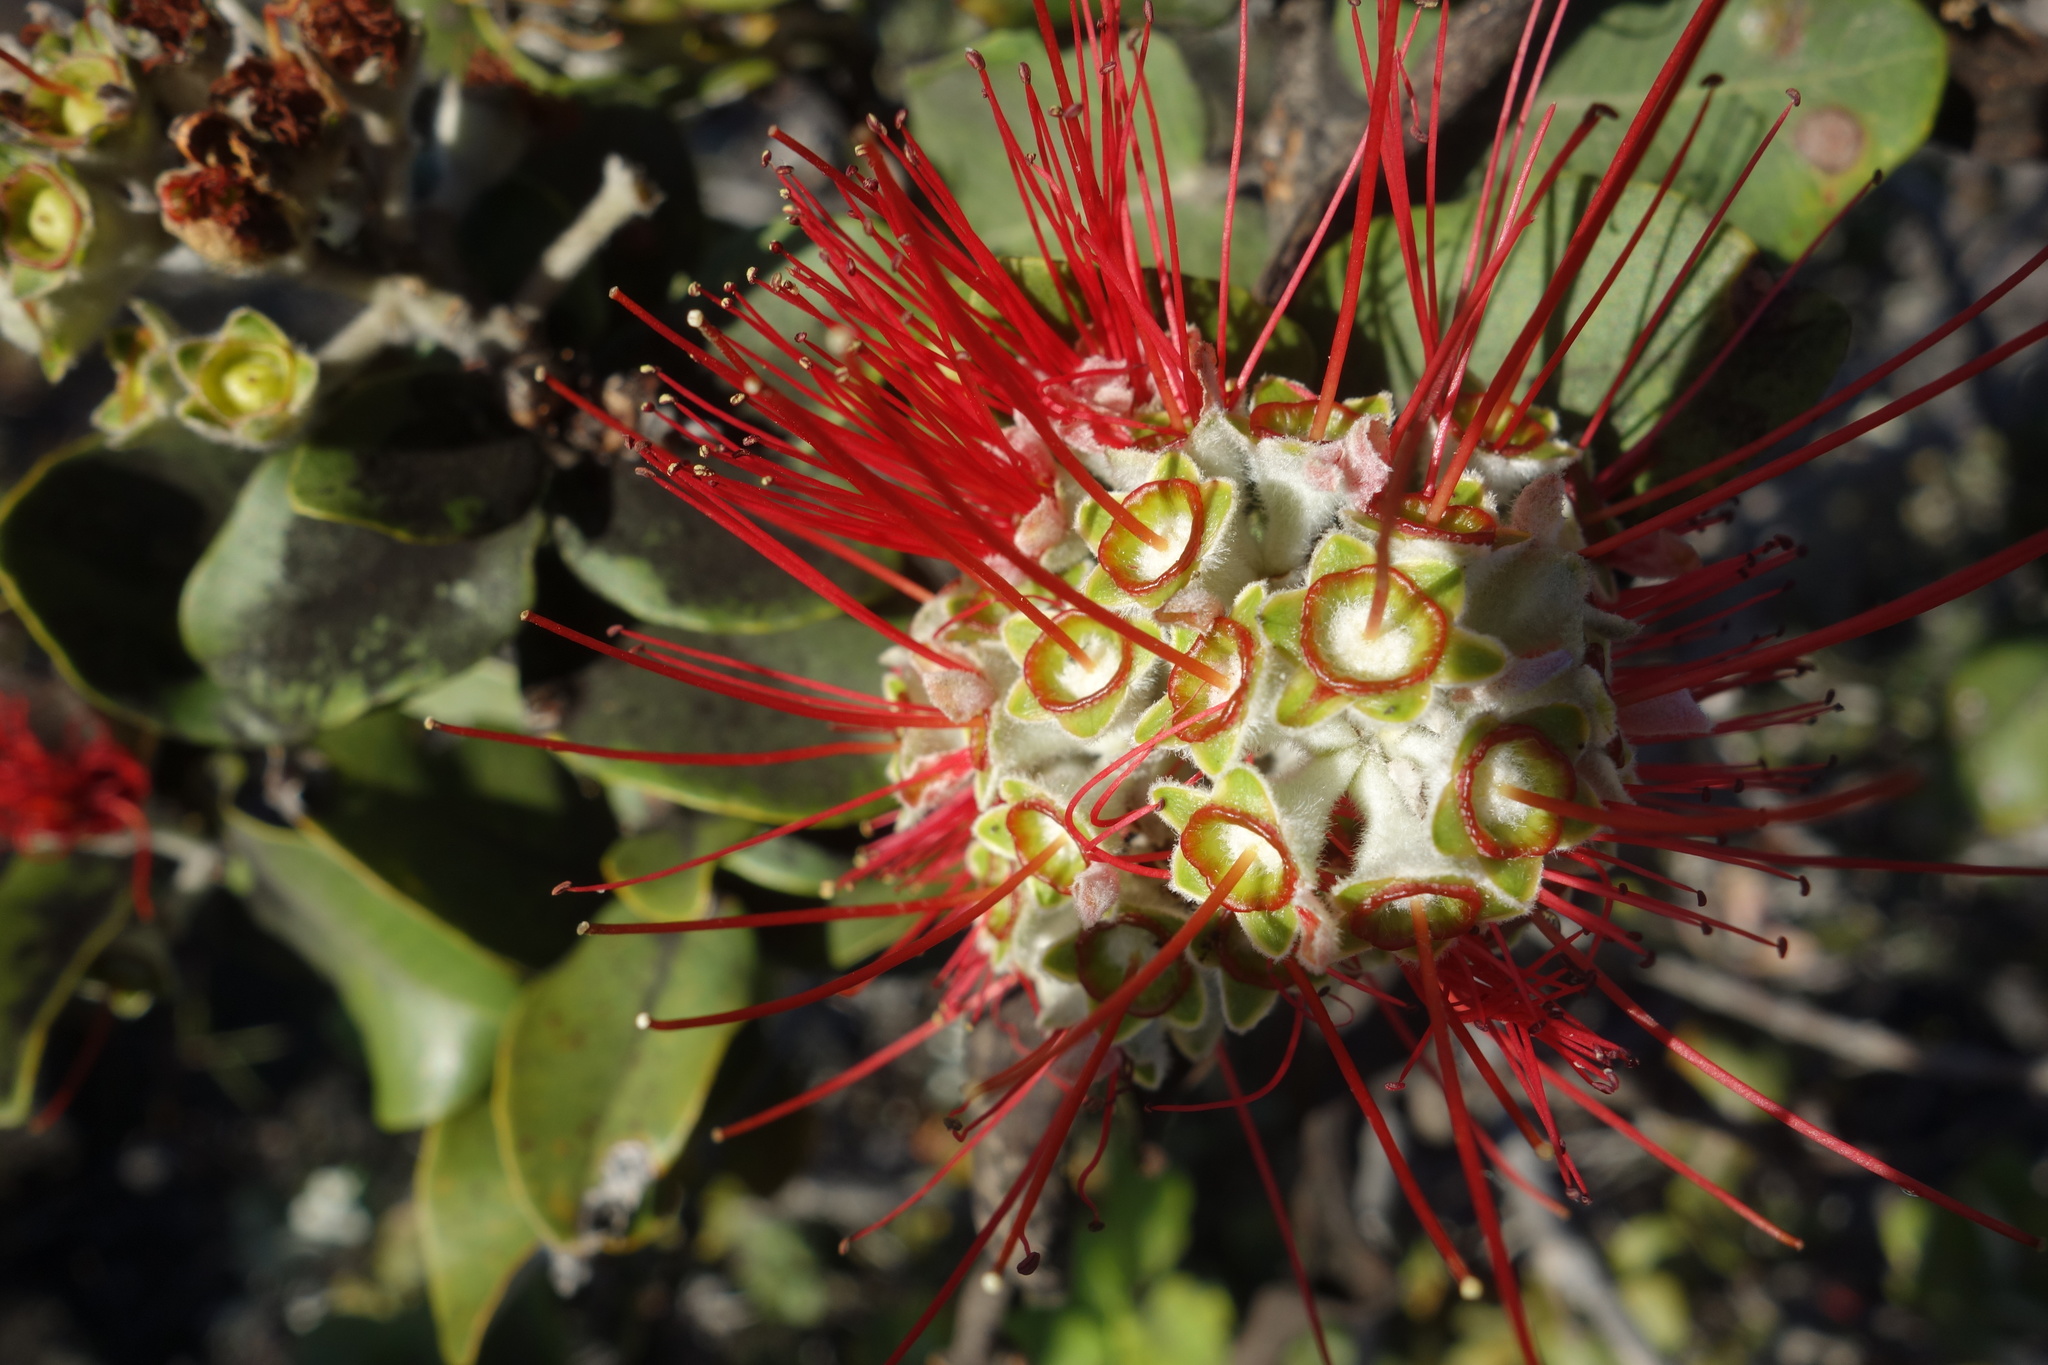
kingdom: Plantae
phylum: Tracheophyta
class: Magnoliopsida
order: Myrtales
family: Myrtaceae
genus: Metrosideros
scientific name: Metrosideros polymorpha
